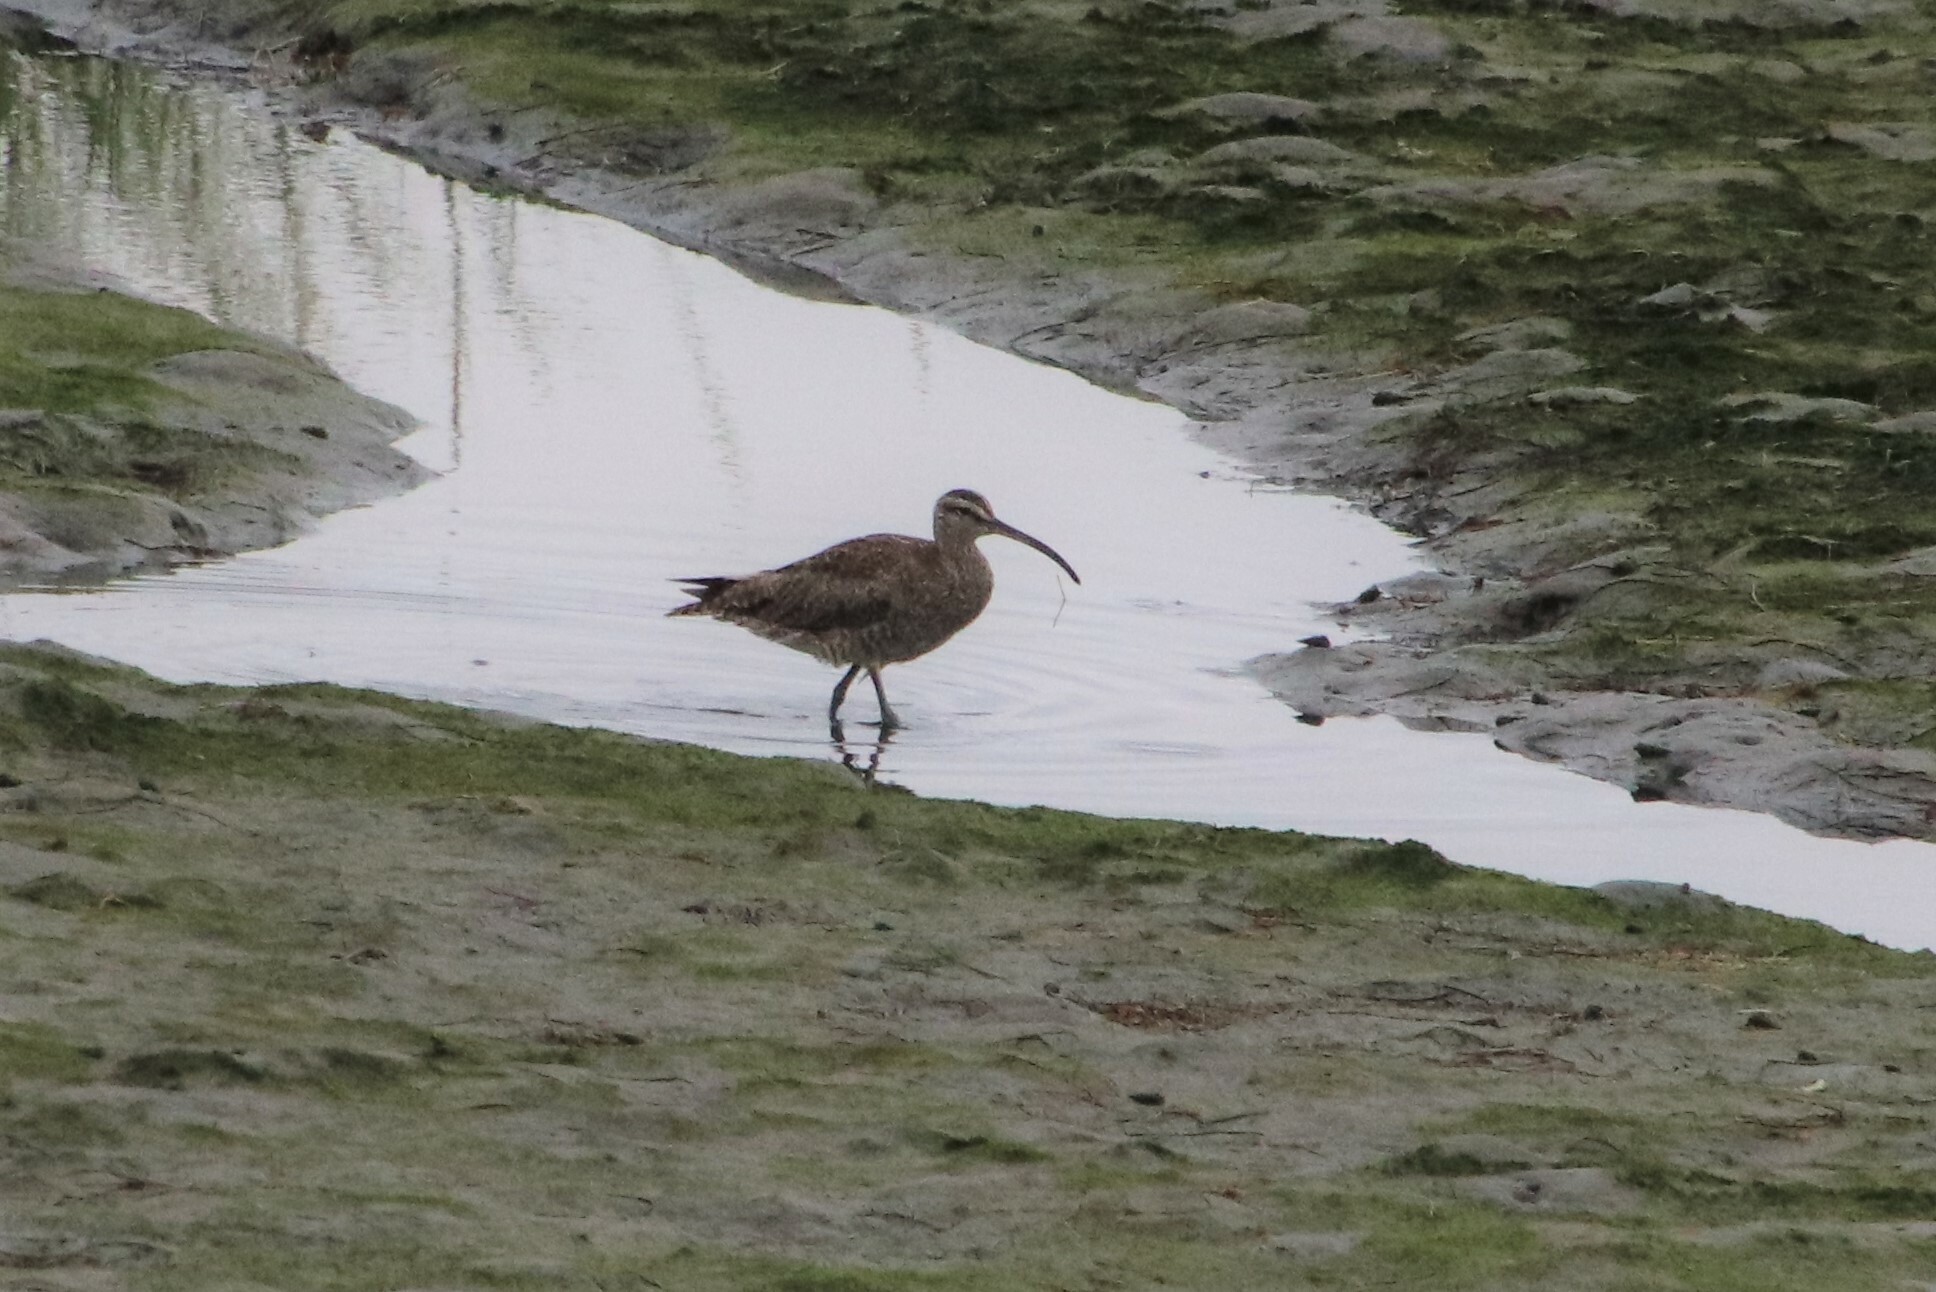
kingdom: Animalia
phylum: Chordata
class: Aves
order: Charadriiformes
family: Scolopacidae
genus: Numenius
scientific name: Numenius phaeopus
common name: Whimbrel
